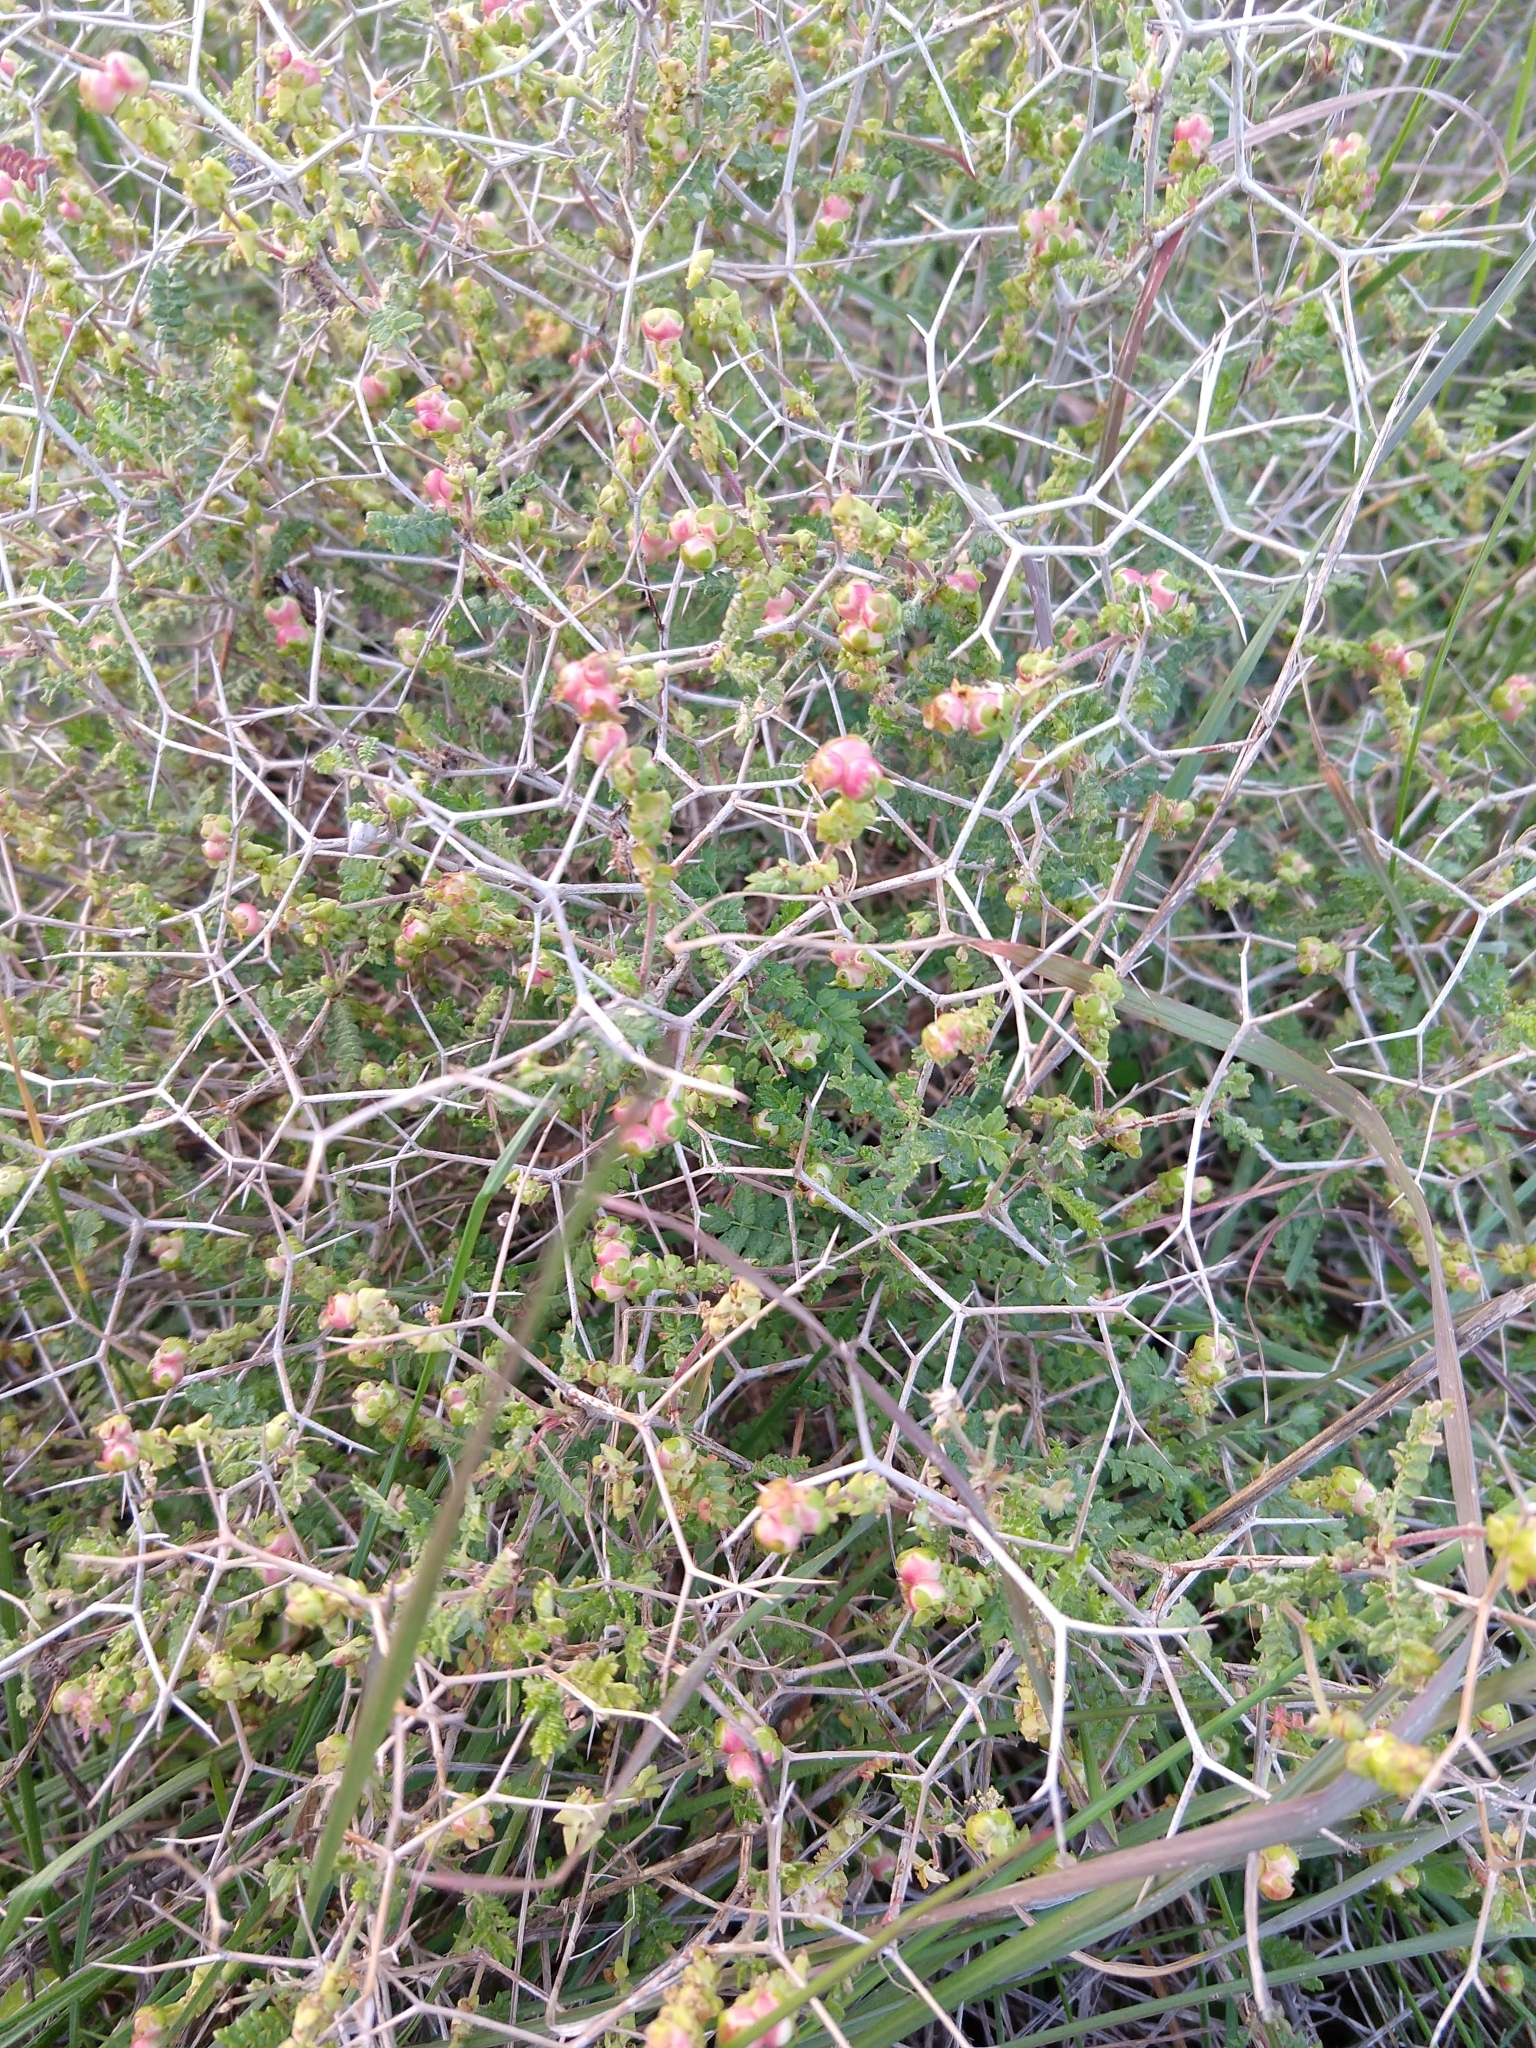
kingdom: Plantae
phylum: Tracheophyta
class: Magnoliopsida
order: Rosales
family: Rosaceae
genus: Sarcopoterium
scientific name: Sarcopoterium spinosum
